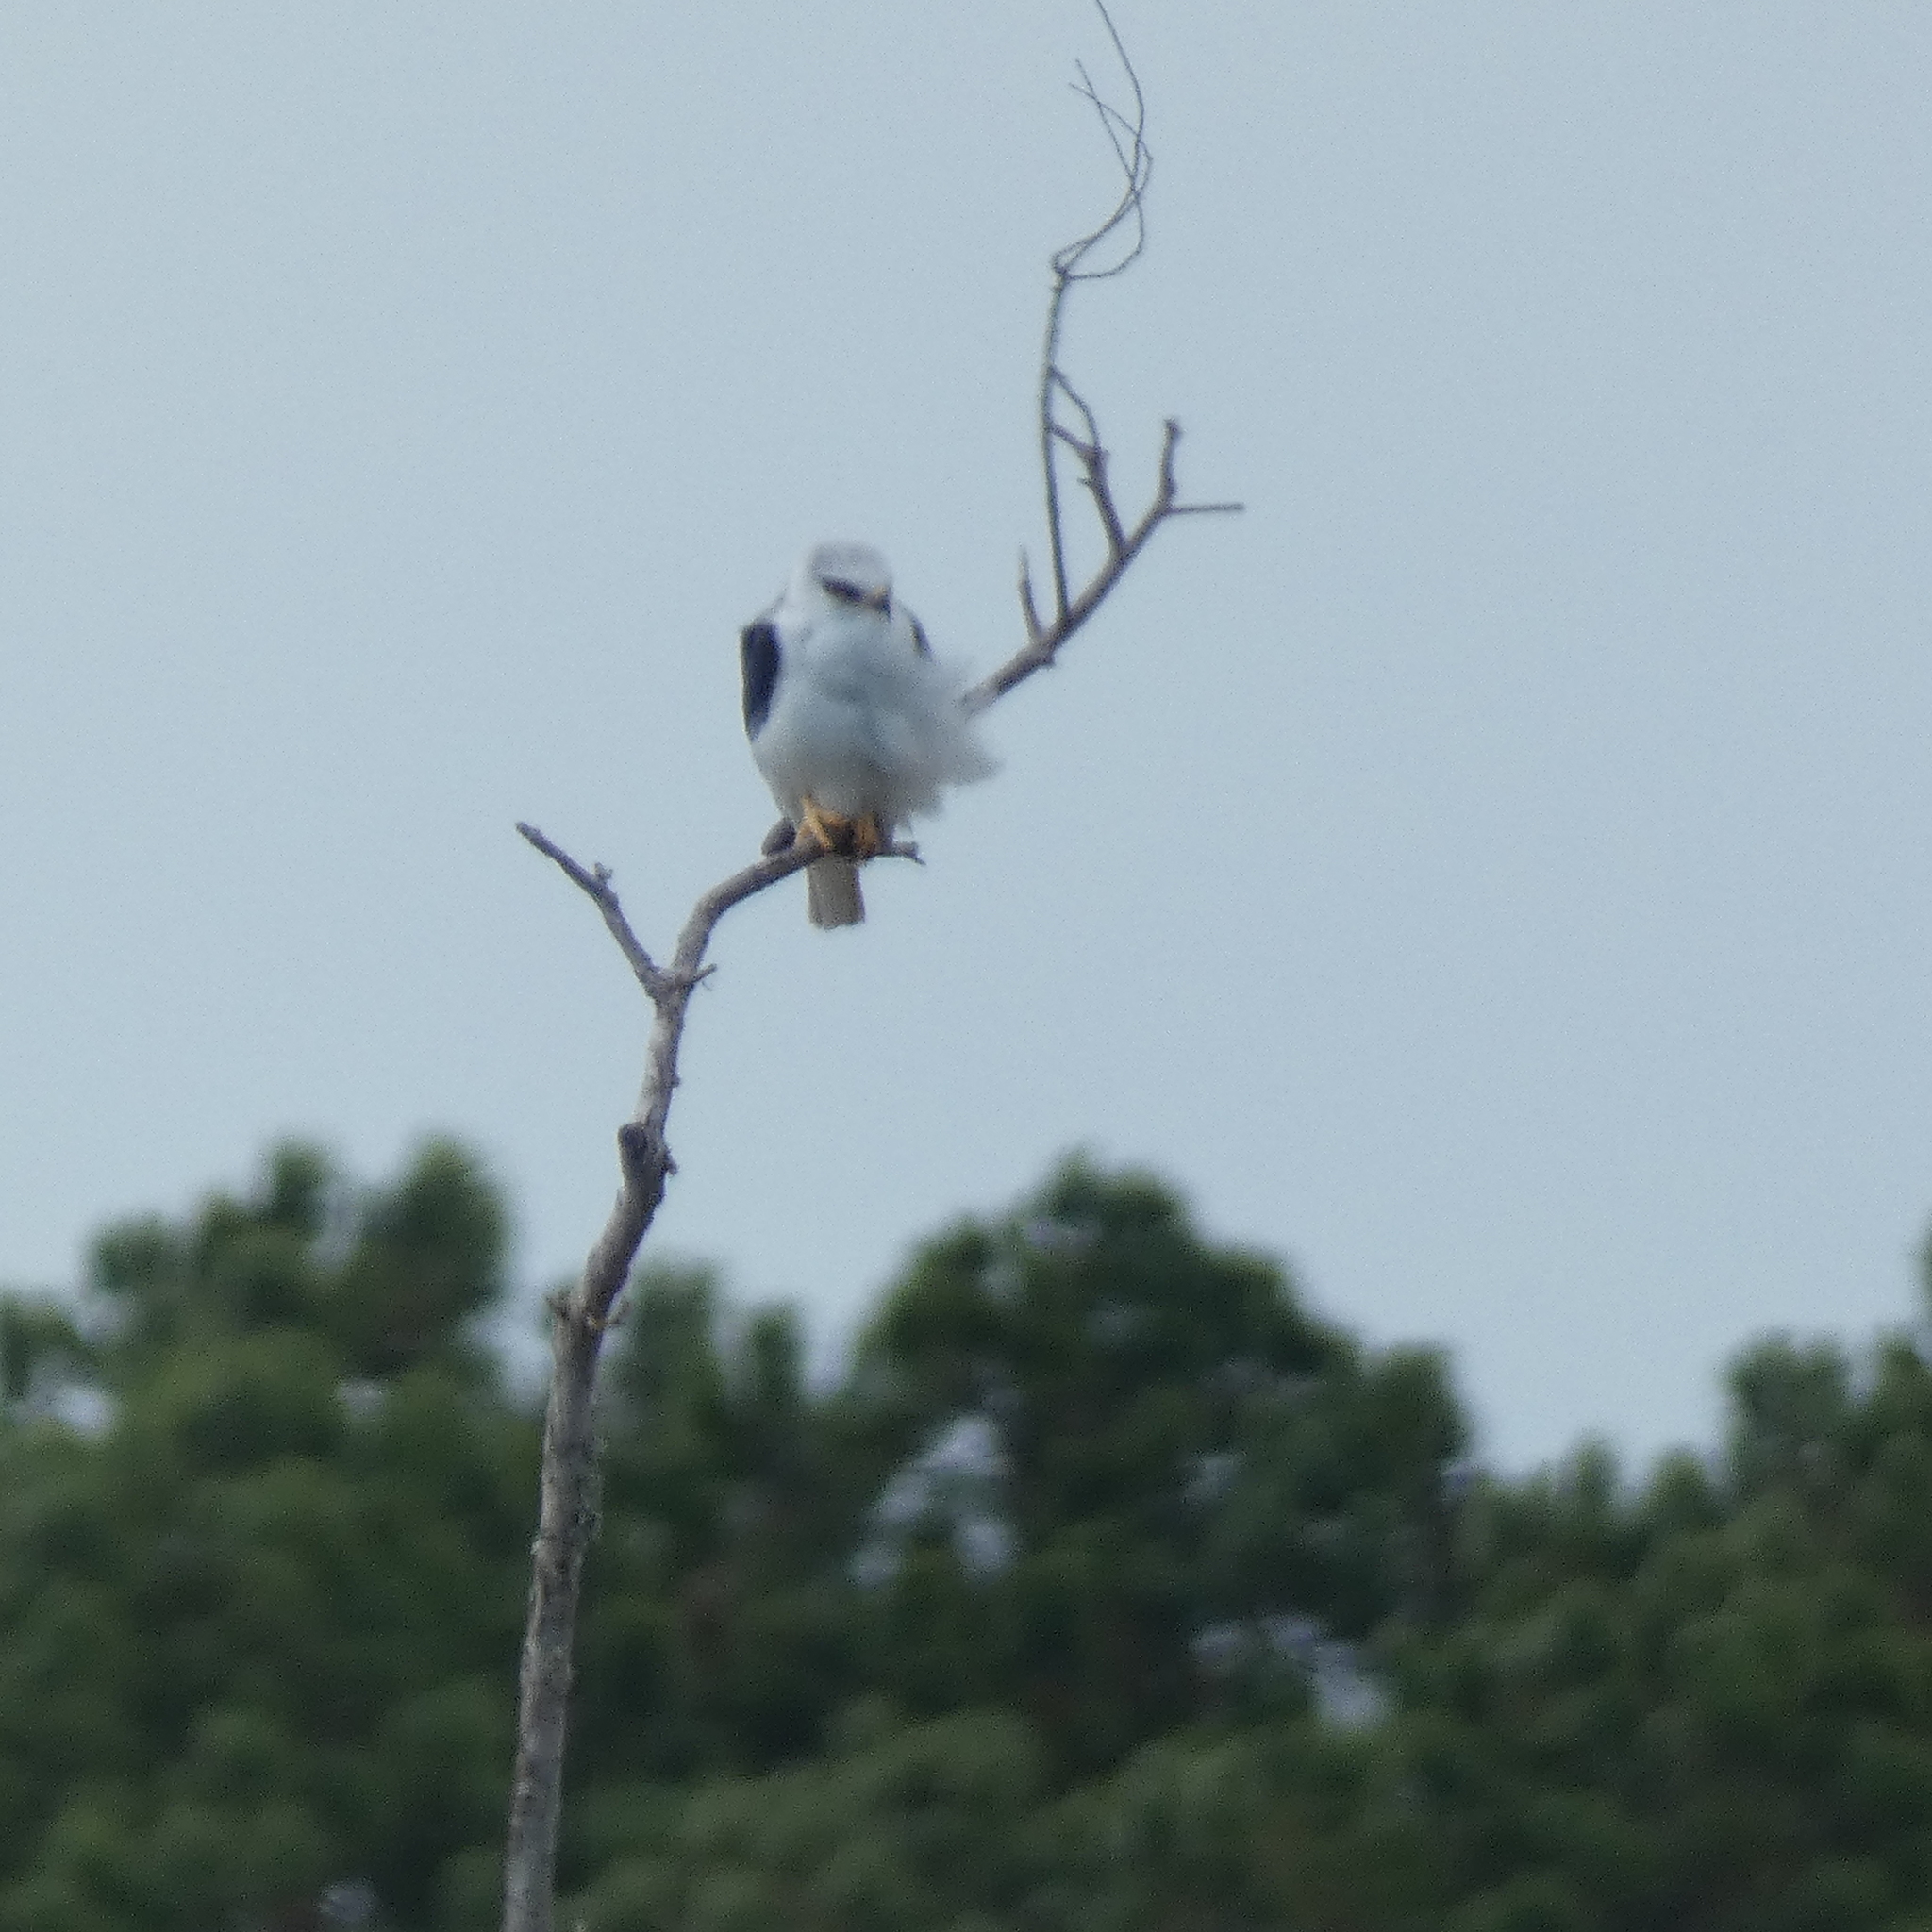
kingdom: Animalia
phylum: Chordata
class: Aves
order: Accipitriformes
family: Accipitridae
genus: Elanus
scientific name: Elanus leucurus
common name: White-tailed kite
